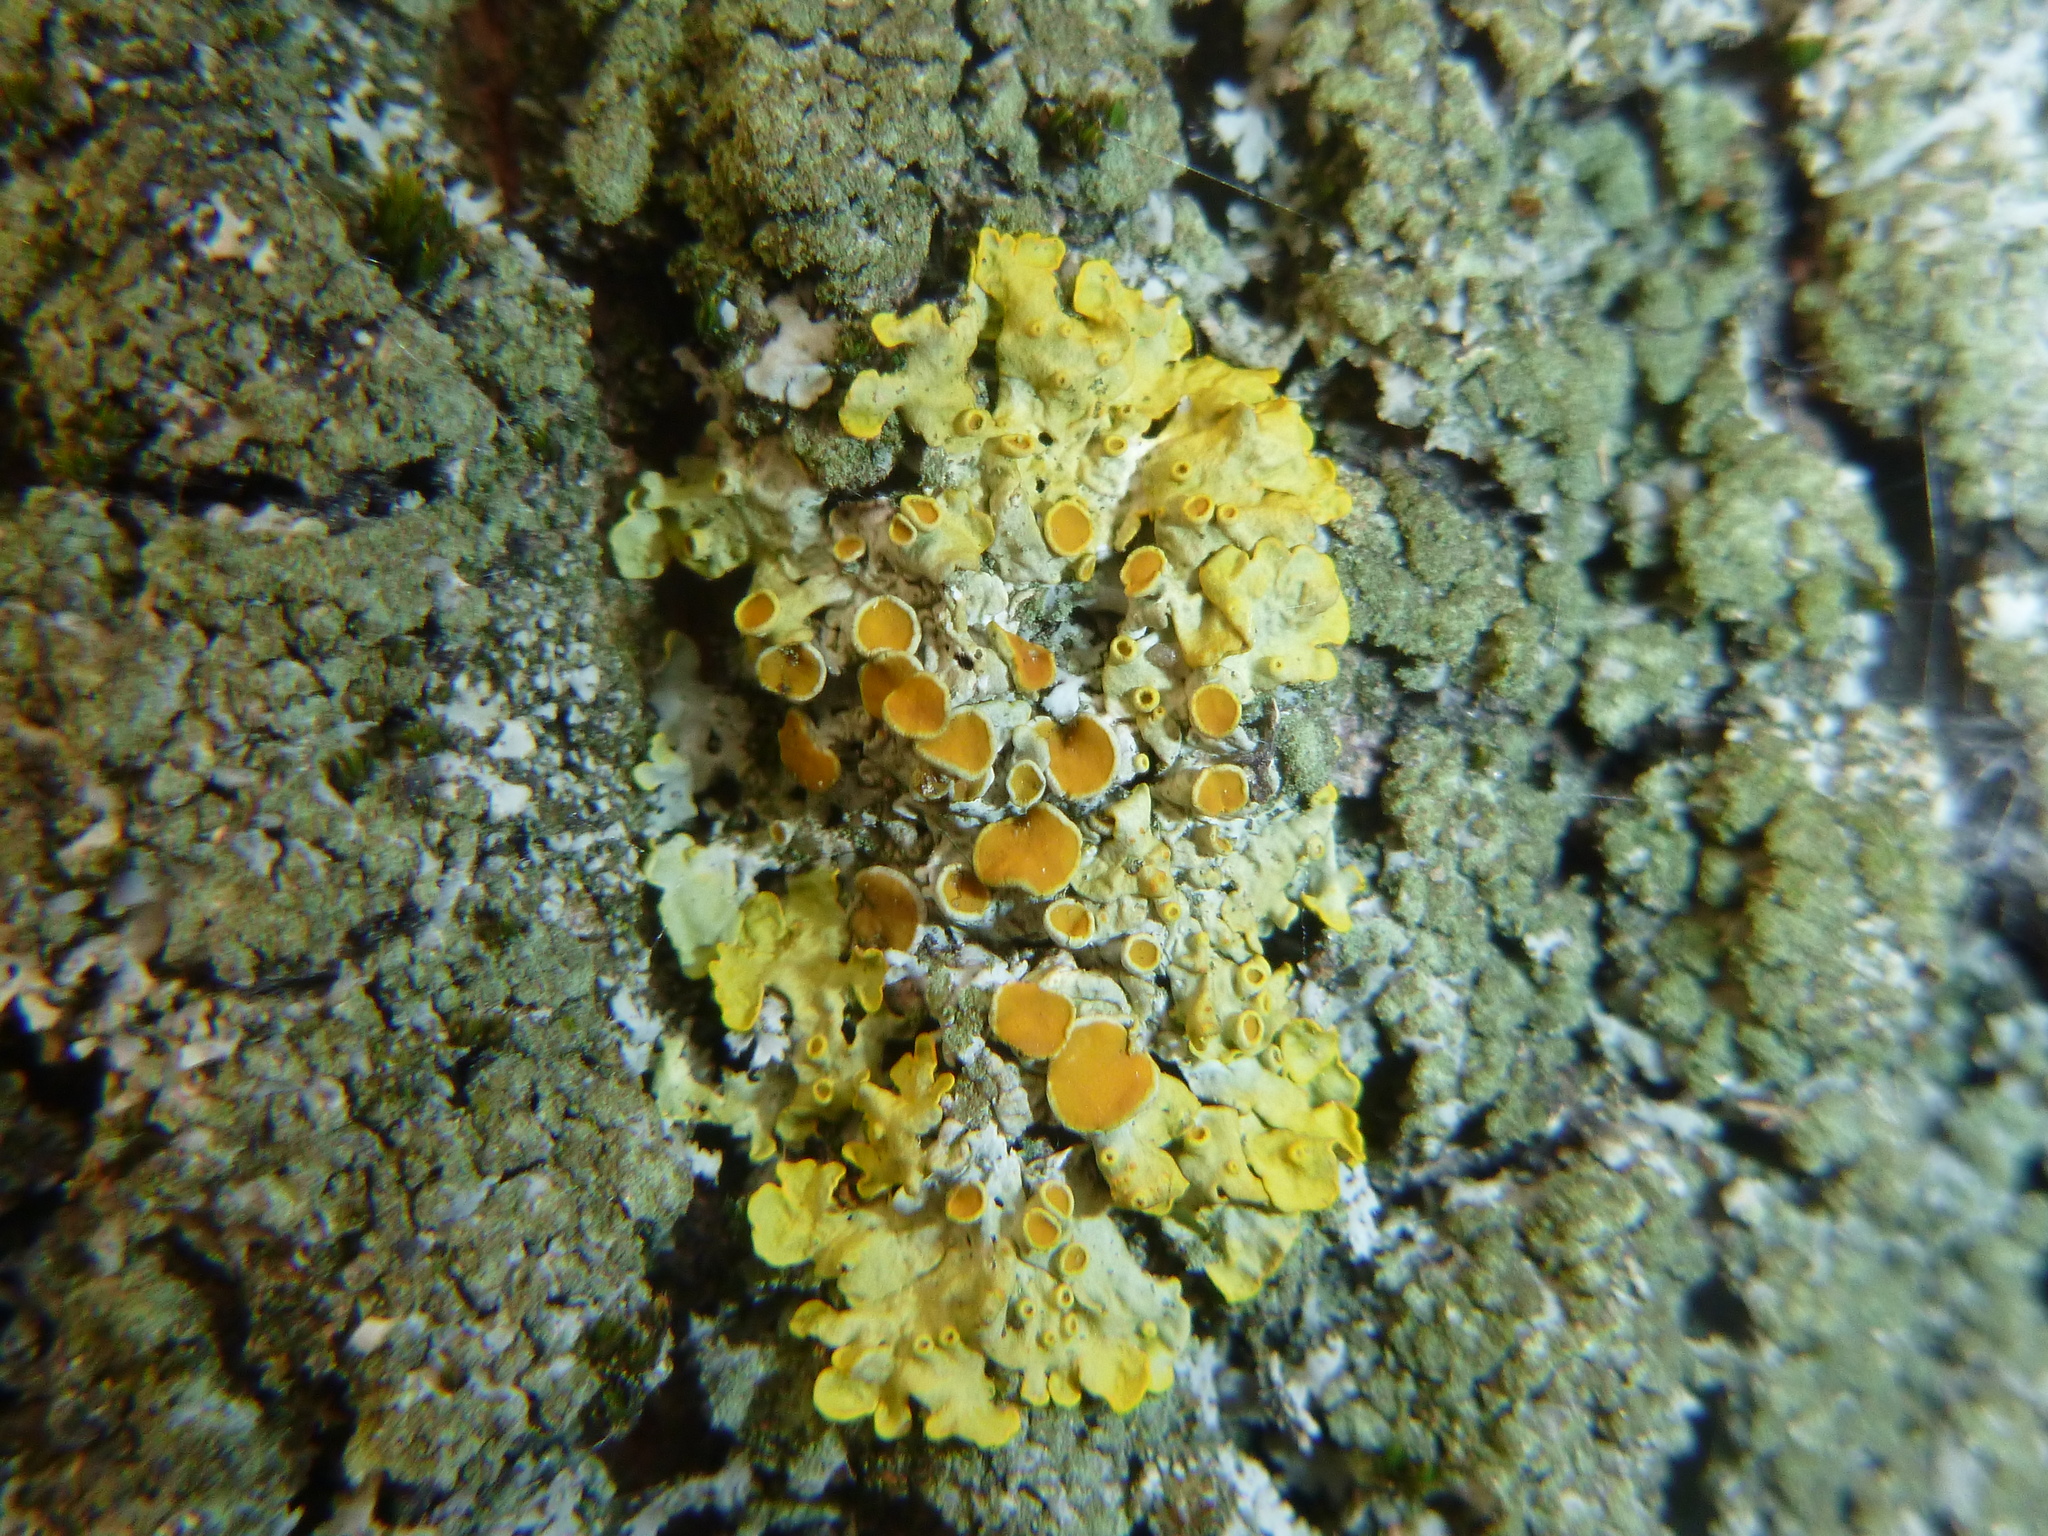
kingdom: Fungi
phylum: Ascomycota
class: Lecanoromycetes
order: Teloschistales
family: Teloschistaceae
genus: Xanthoria
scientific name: Xanthoria parietina
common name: Common orange lichen
